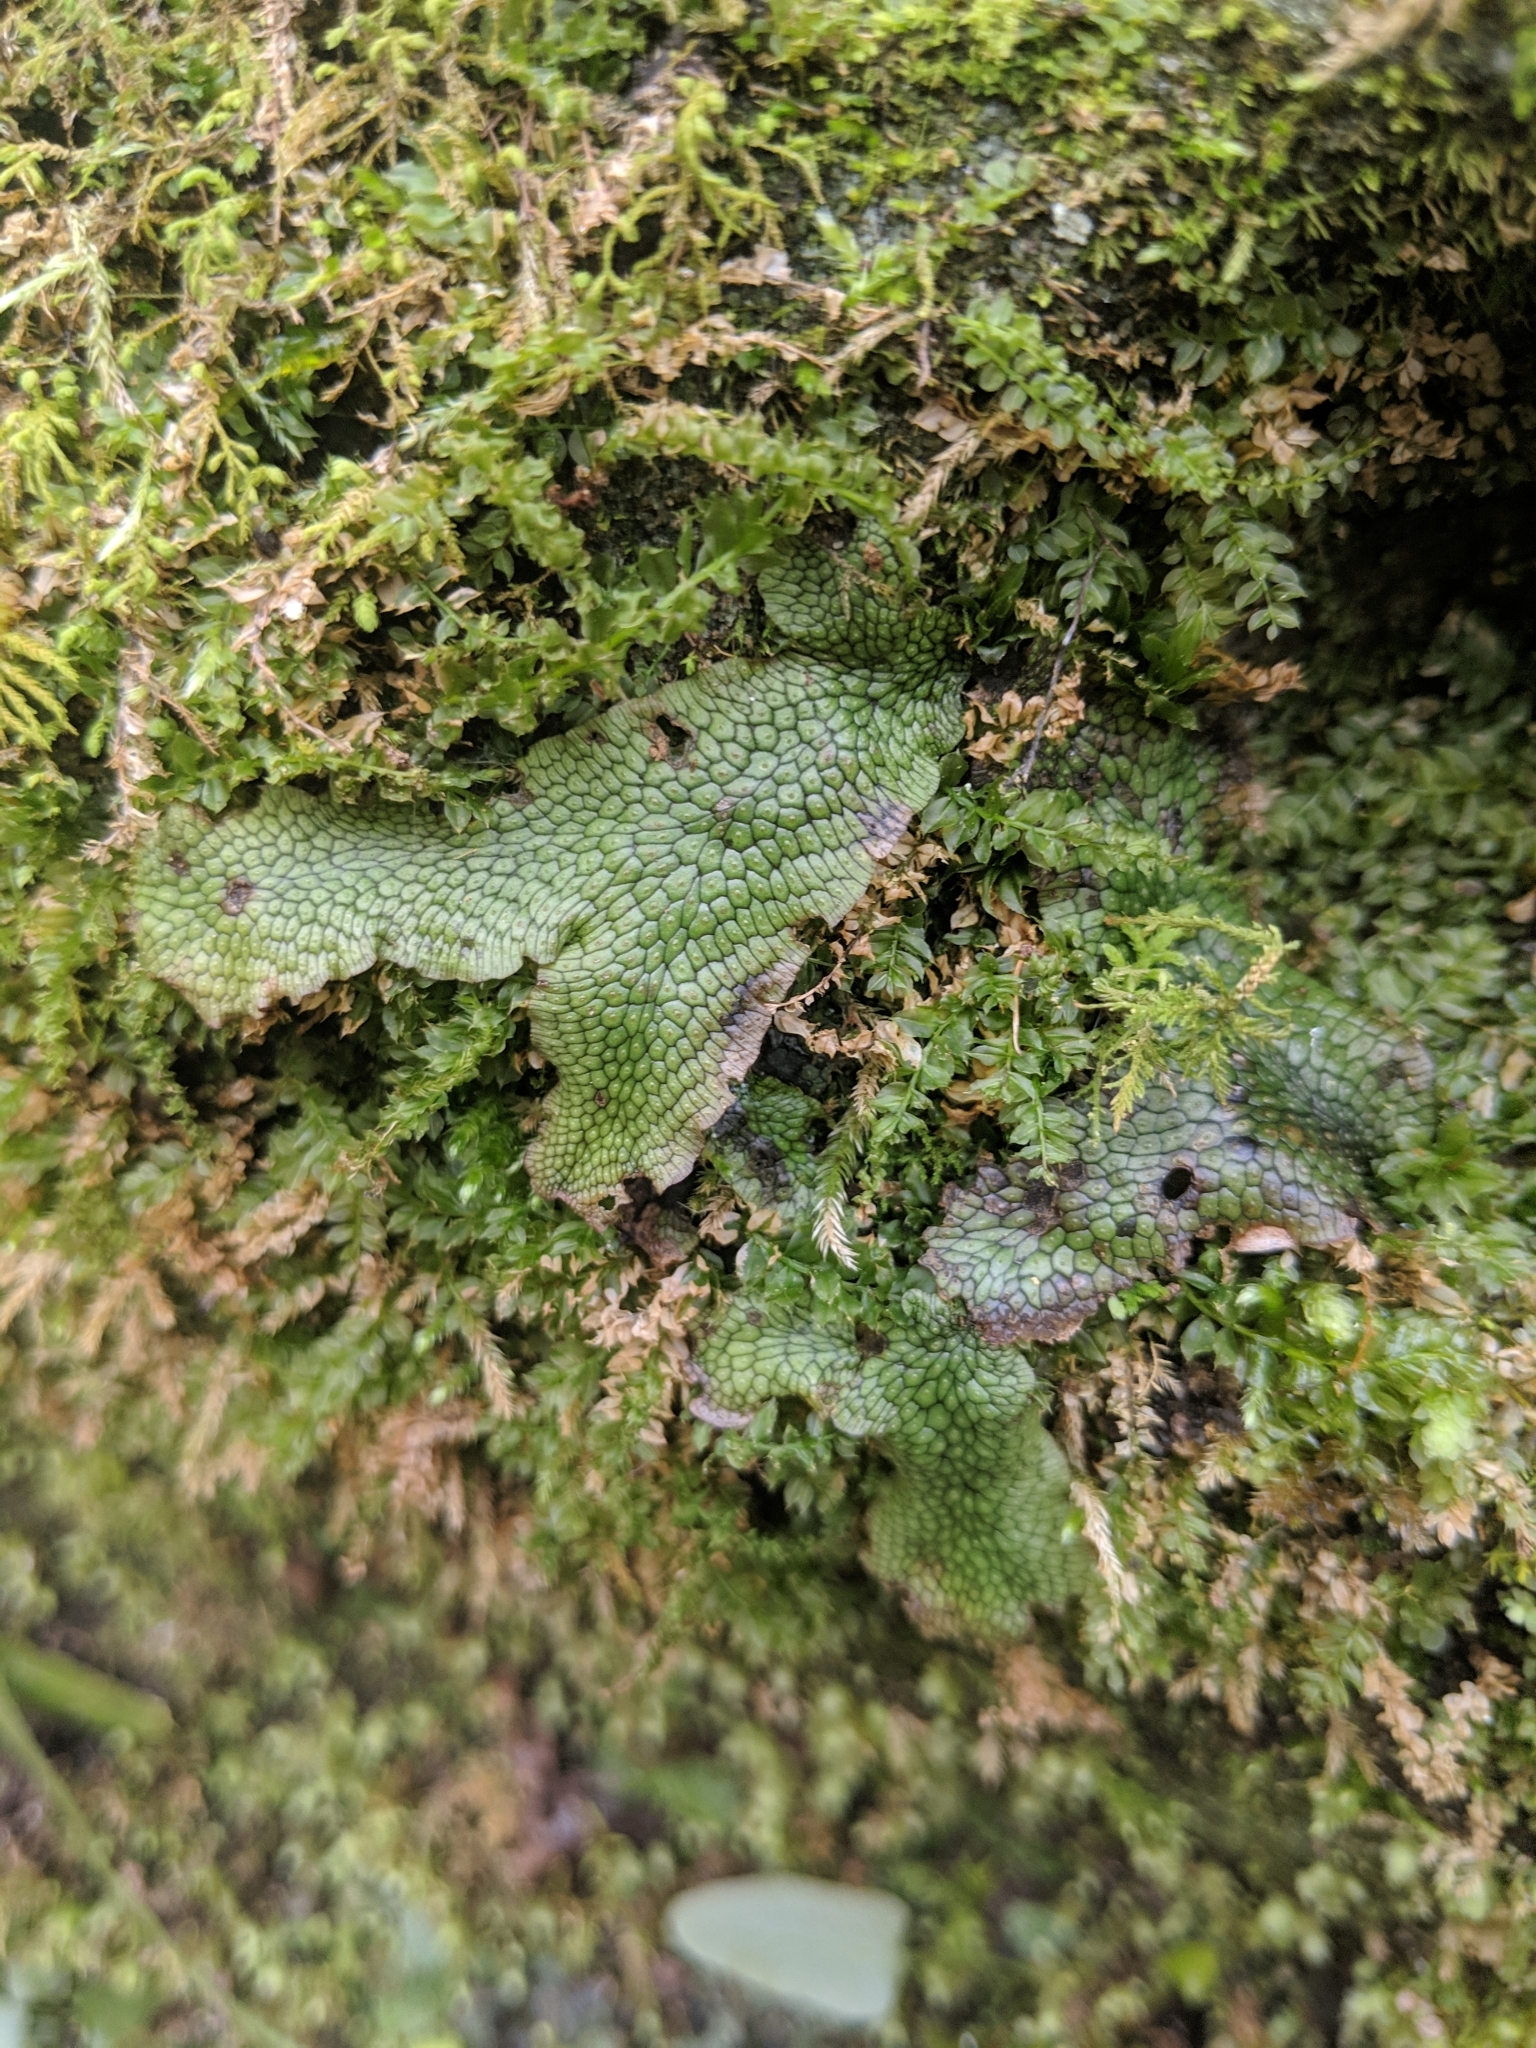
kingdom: Plantae
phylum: Marchantiophyta
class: Marchantiopsida
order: Marchantiales
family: Conocephalaceae
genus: Conocephalum
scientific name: Conocephalum salebrosum
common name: Cat-tongue liverwort
